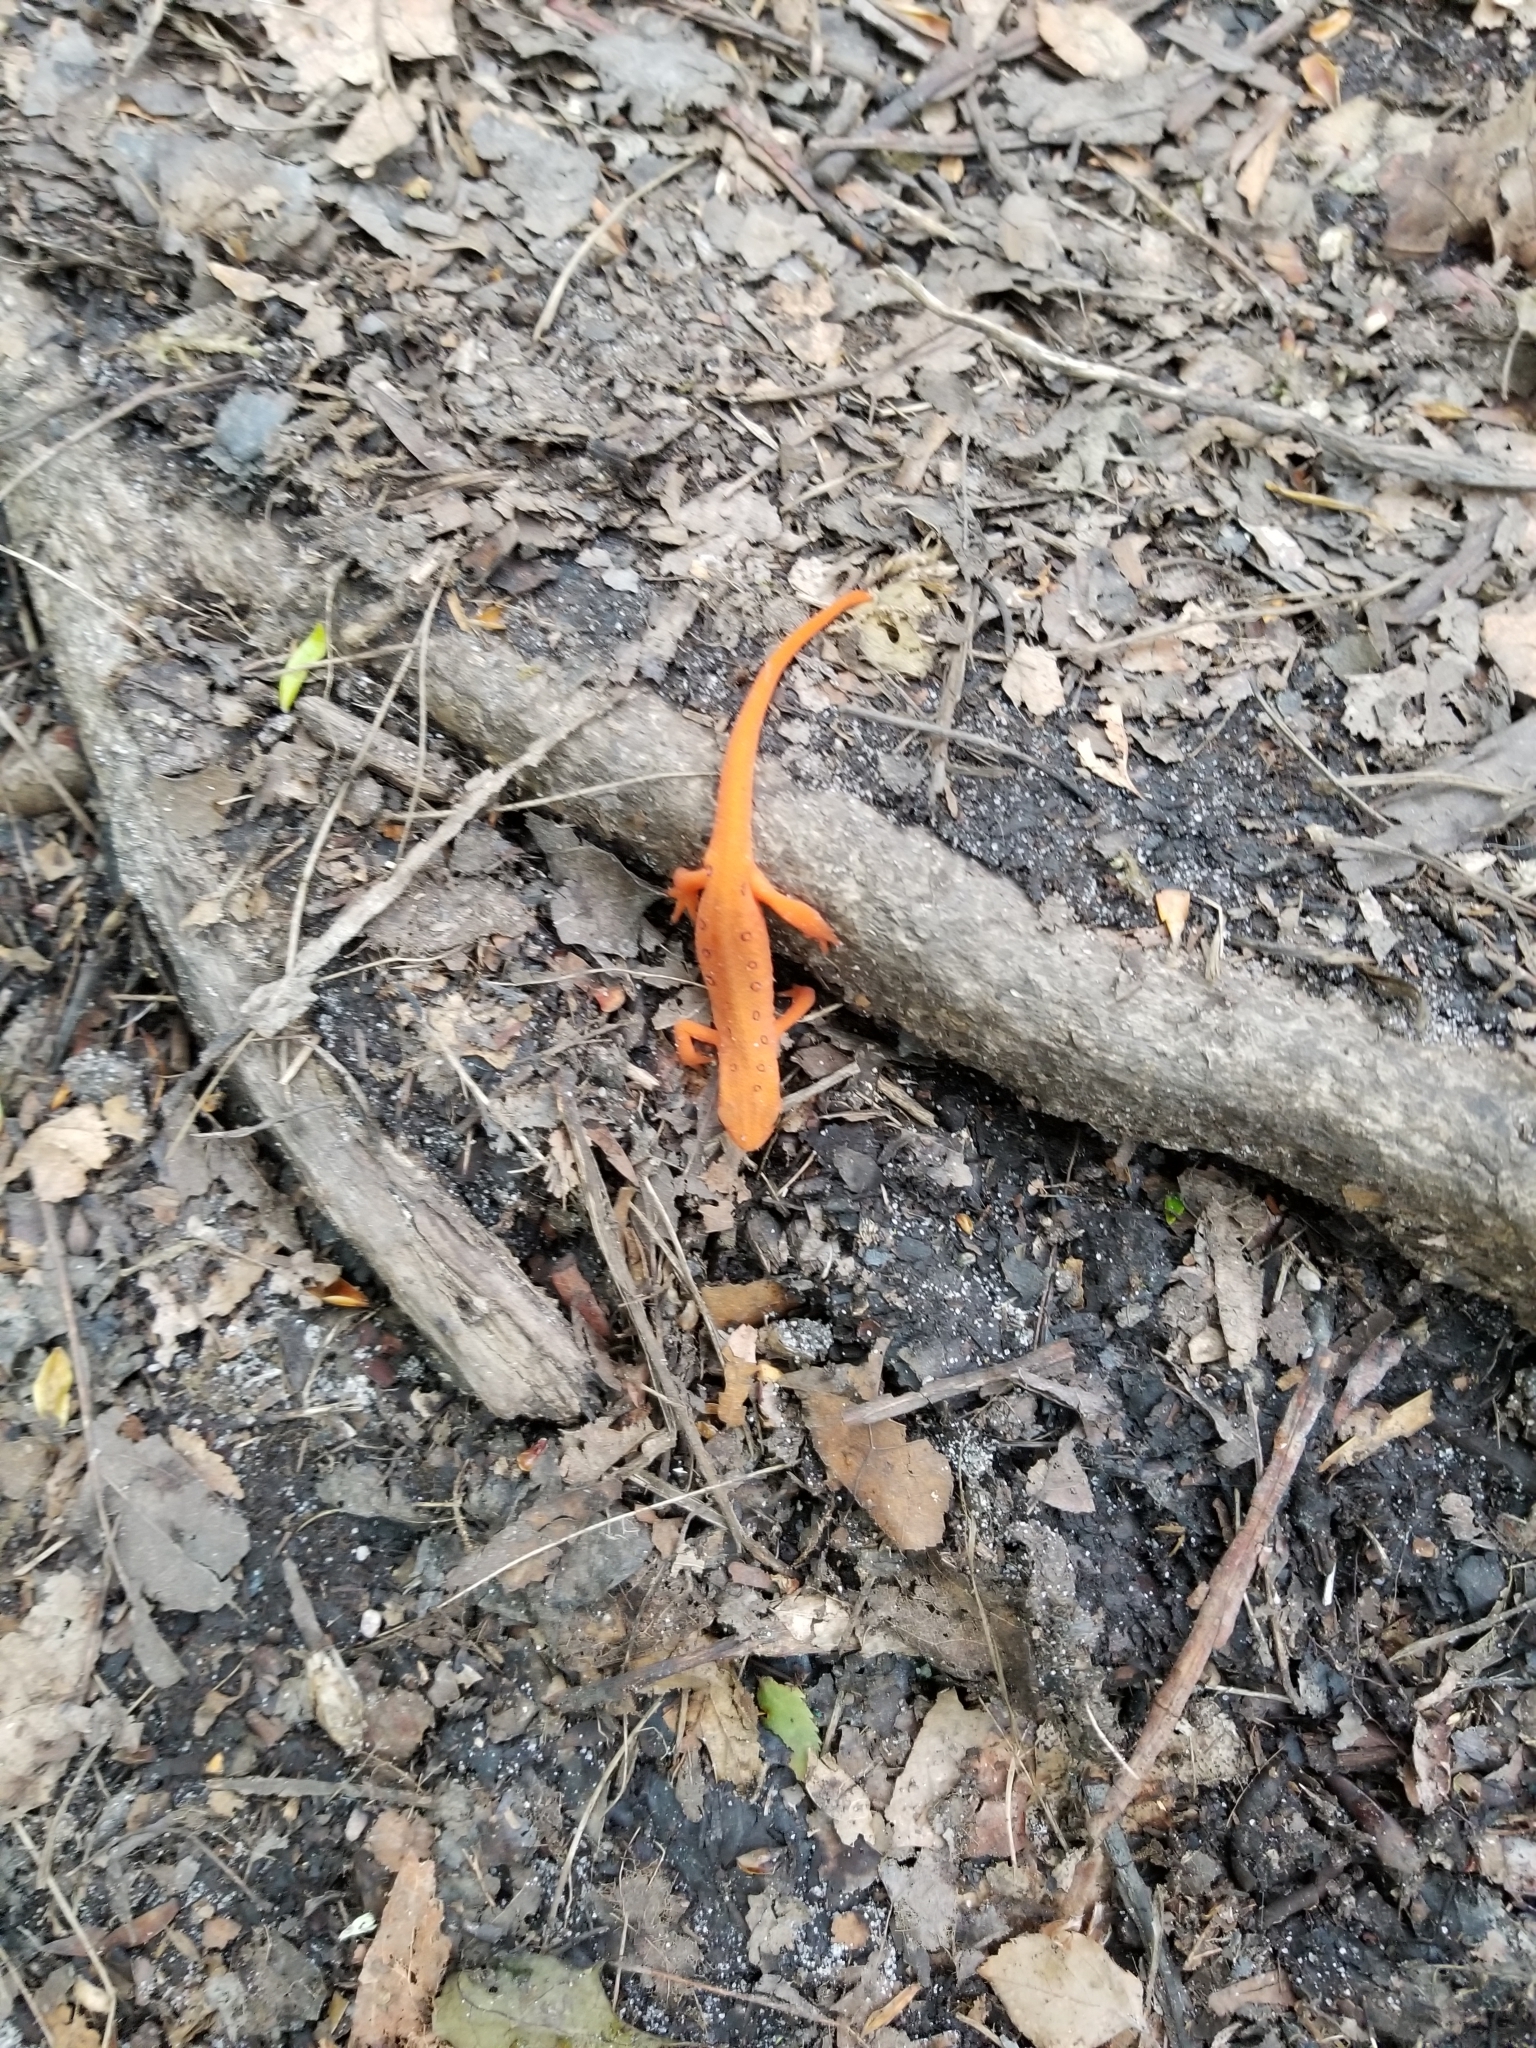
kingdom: Animalia
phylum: Chordata
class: Amphibia
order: Caudata
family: Salamandridae
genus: Notophthalmus
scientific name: Notophthalmus viridescens
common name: Eastern newt
